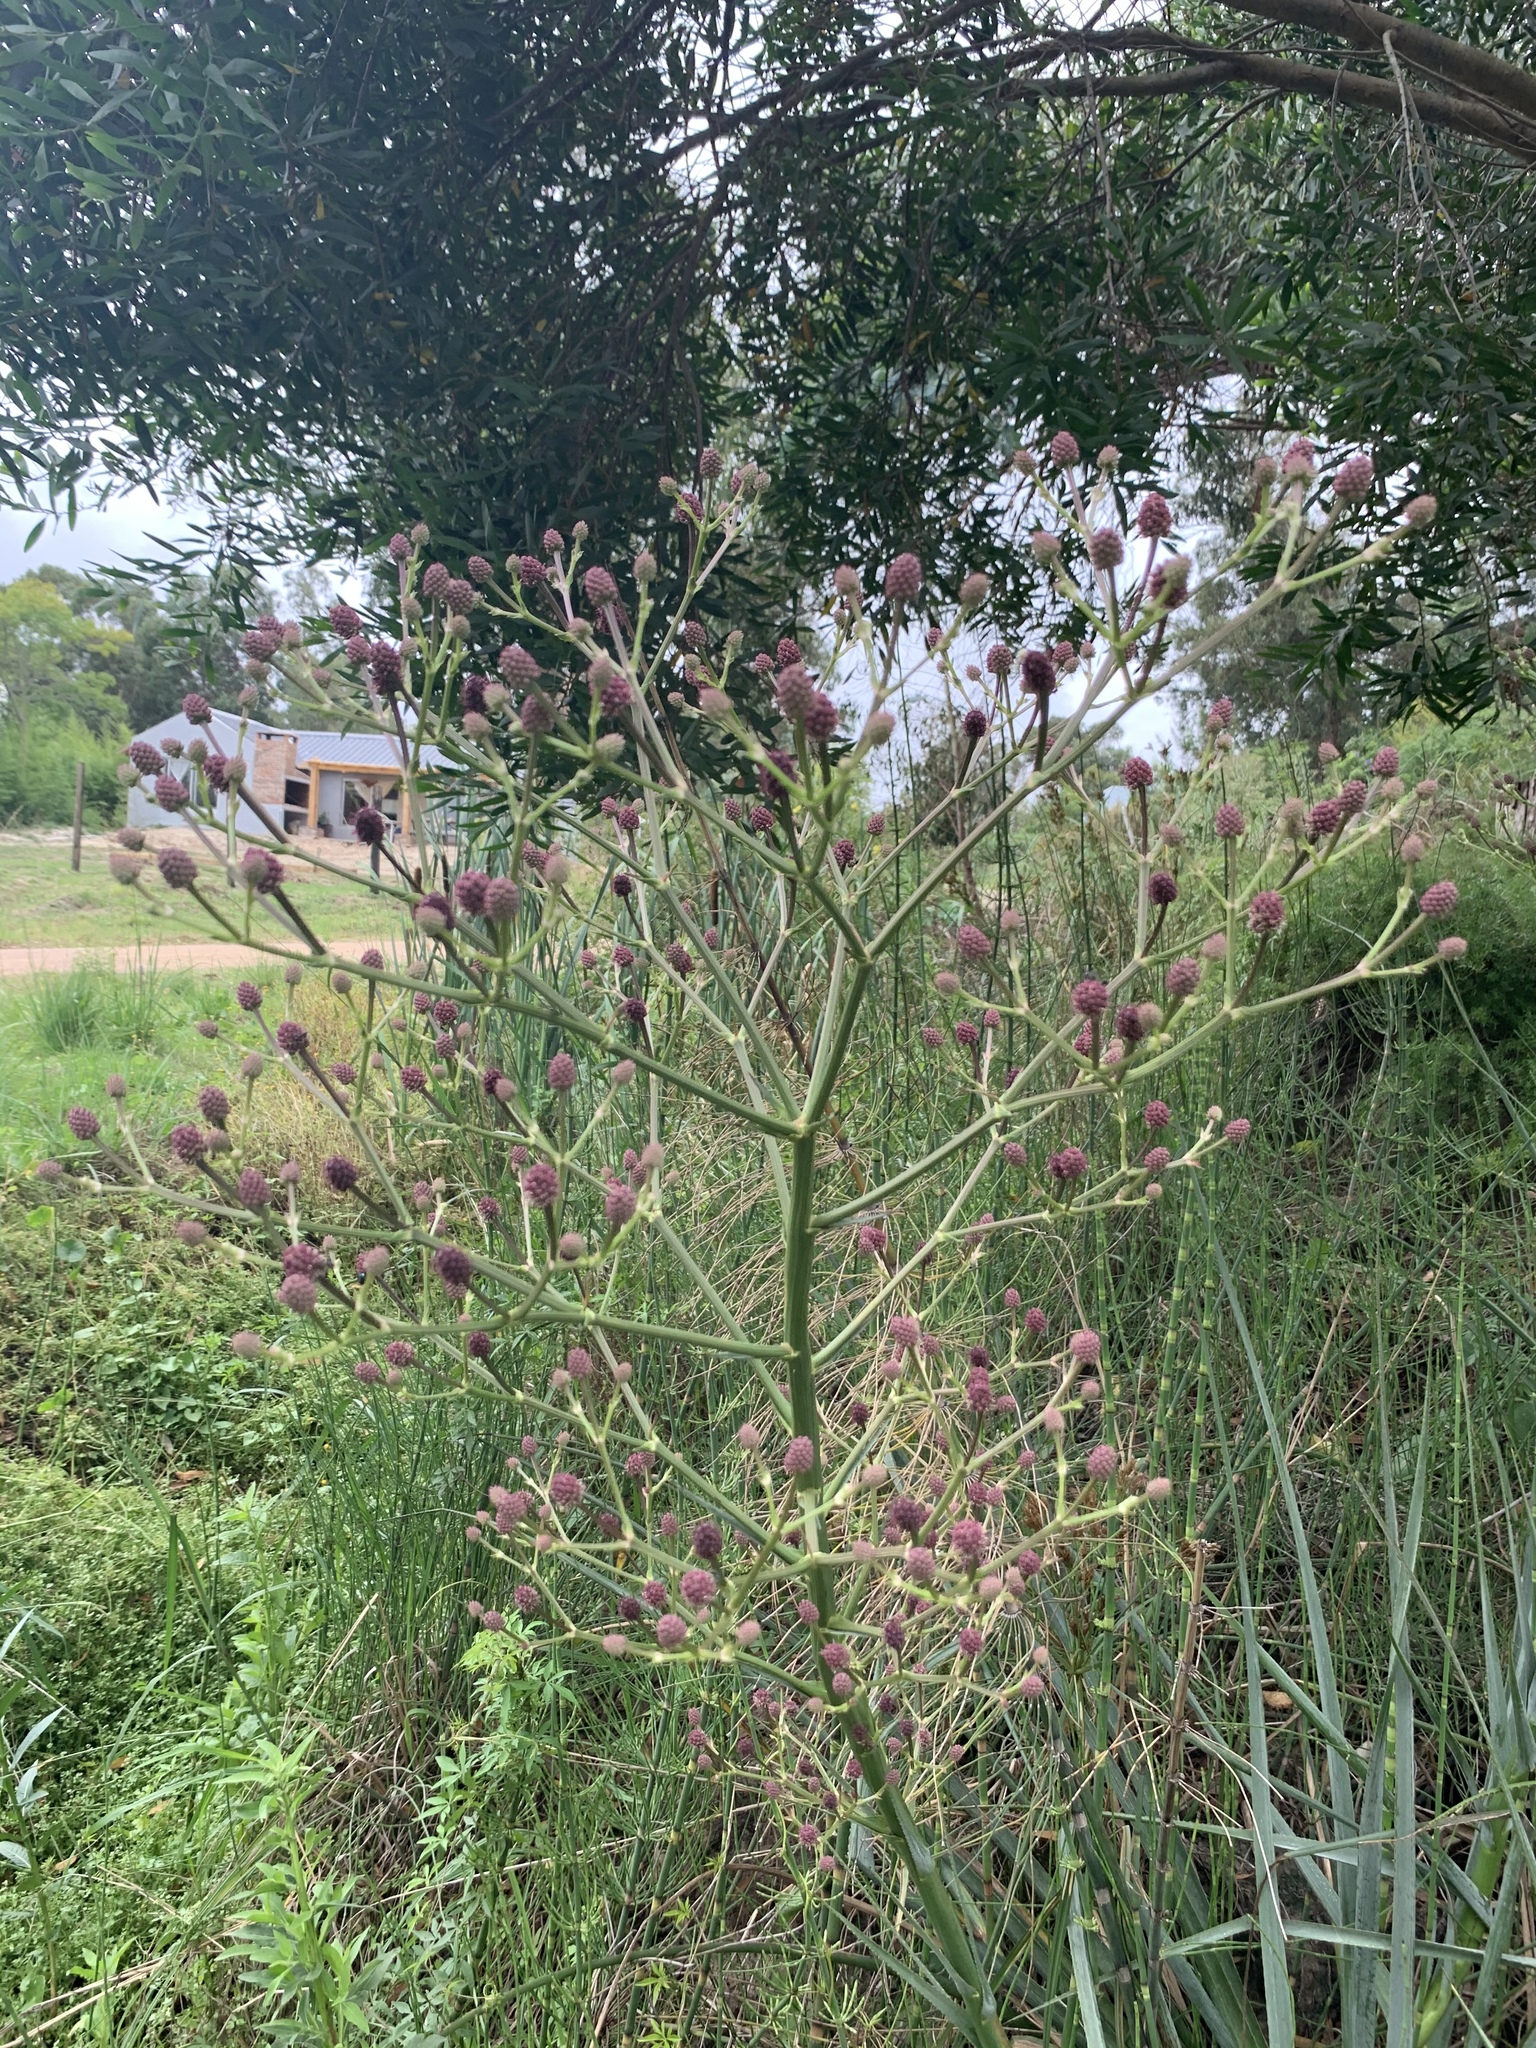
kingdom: Plantae
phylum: Tracheophyta
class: Magnoliopsida
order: Apiales
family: Apiaceae
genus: Eryngium
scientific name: Eryngium pandanifolium
